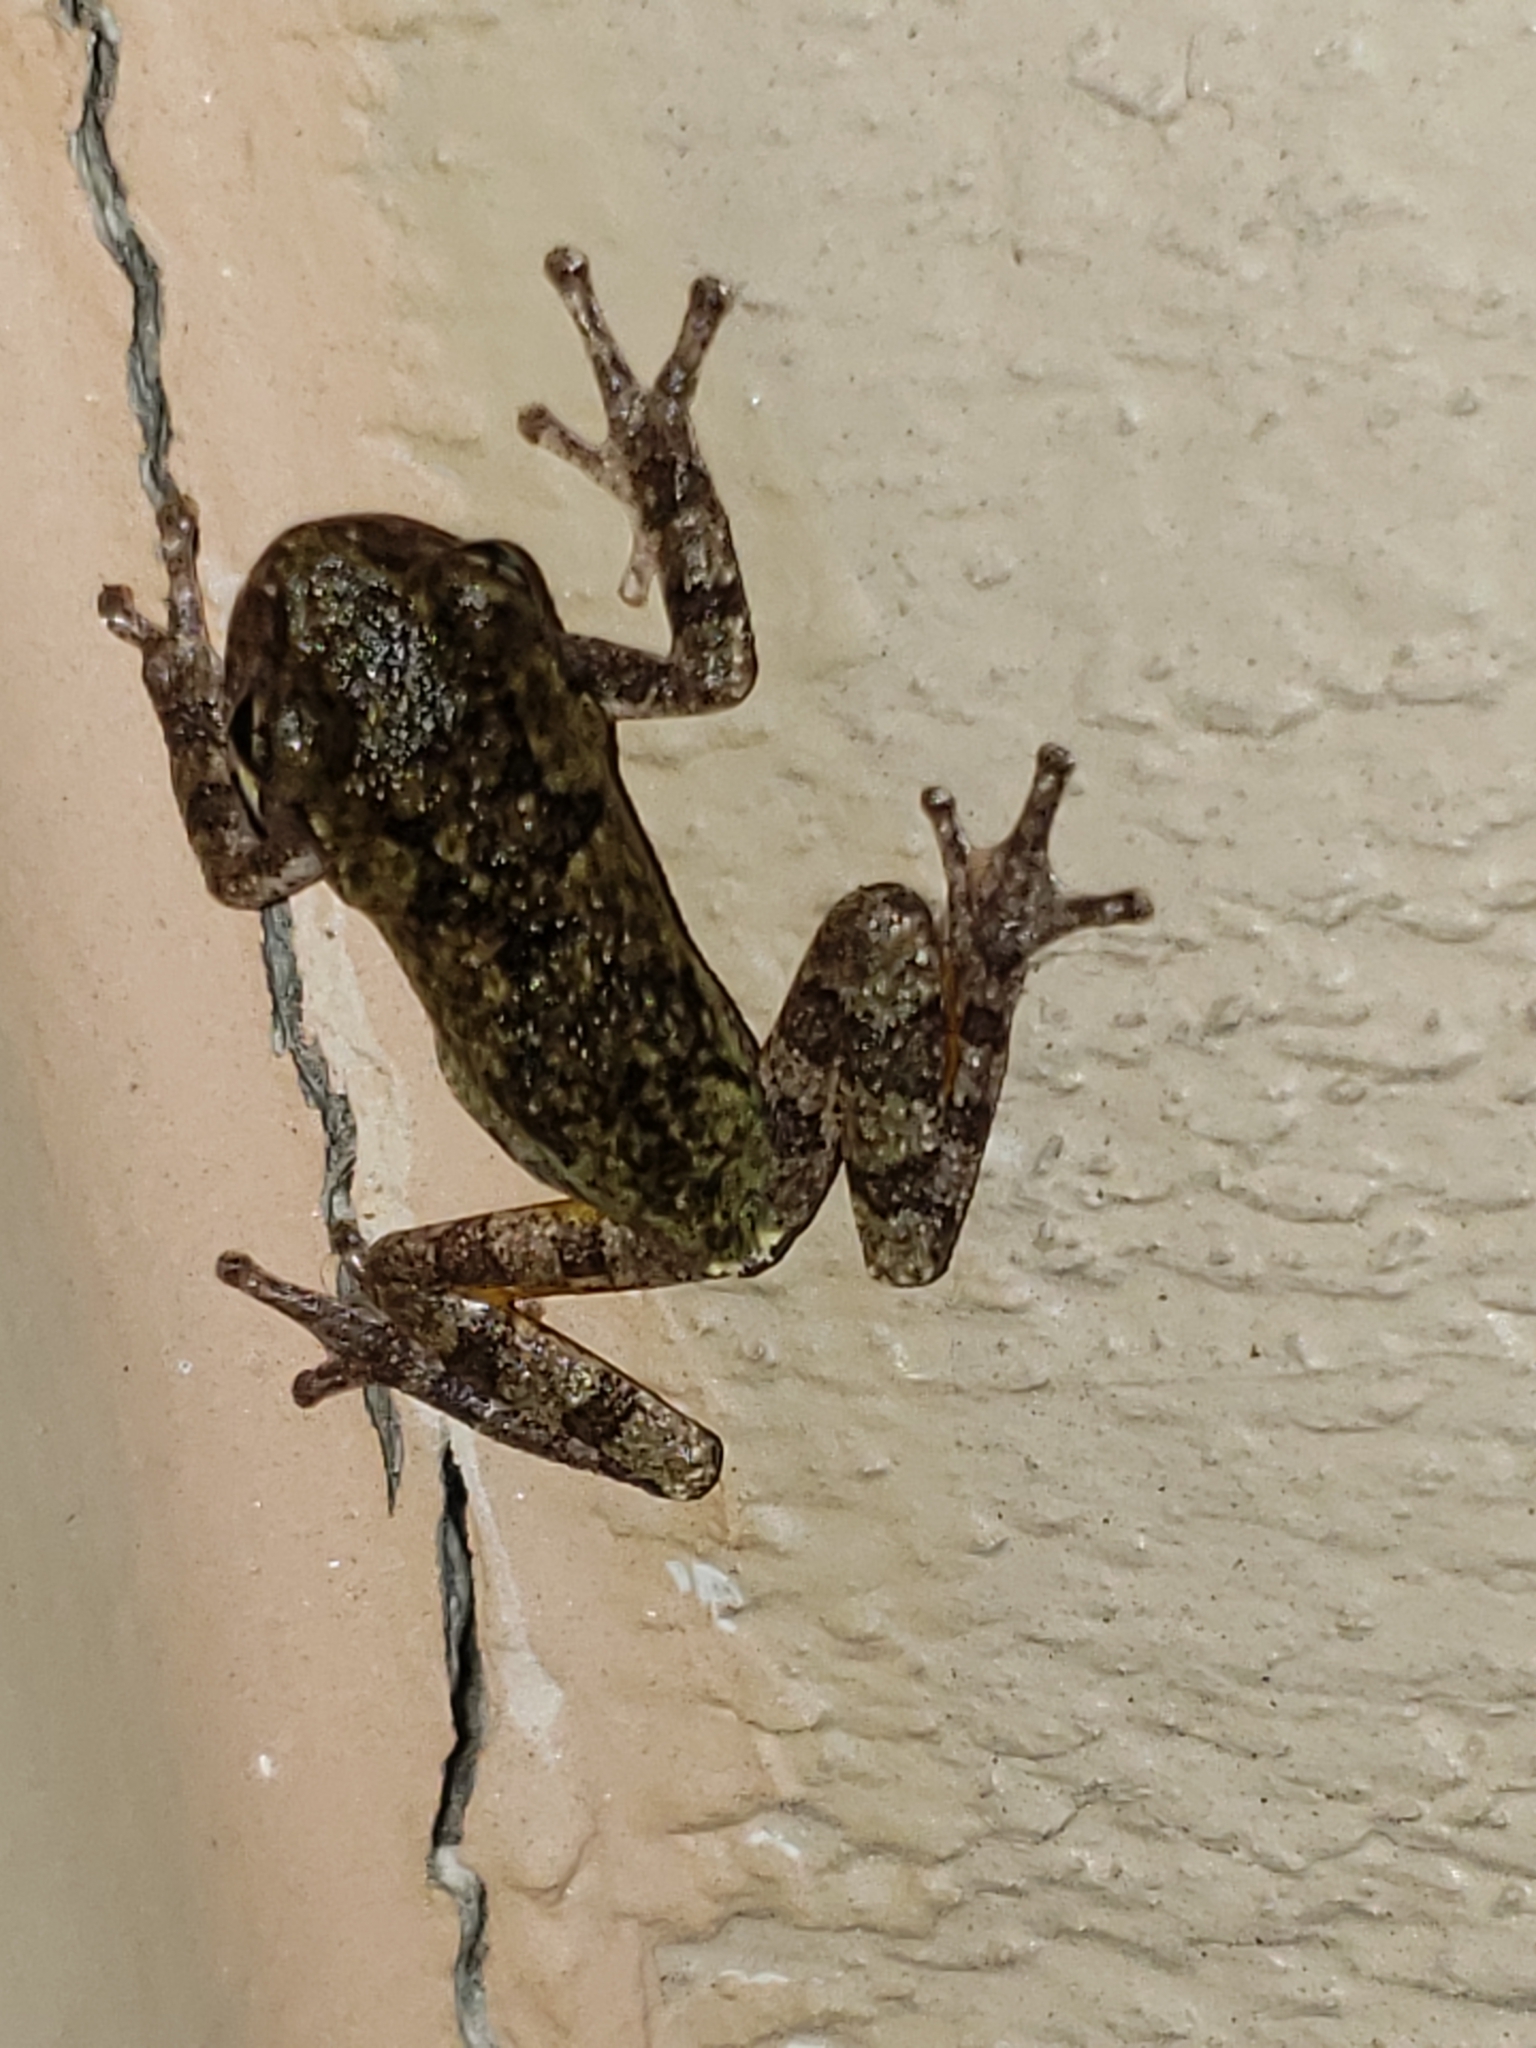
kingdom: Animalia
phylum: Chordata
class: Amphibia
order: Anura
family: Hylidae
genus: Hyla
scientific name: Hyla
